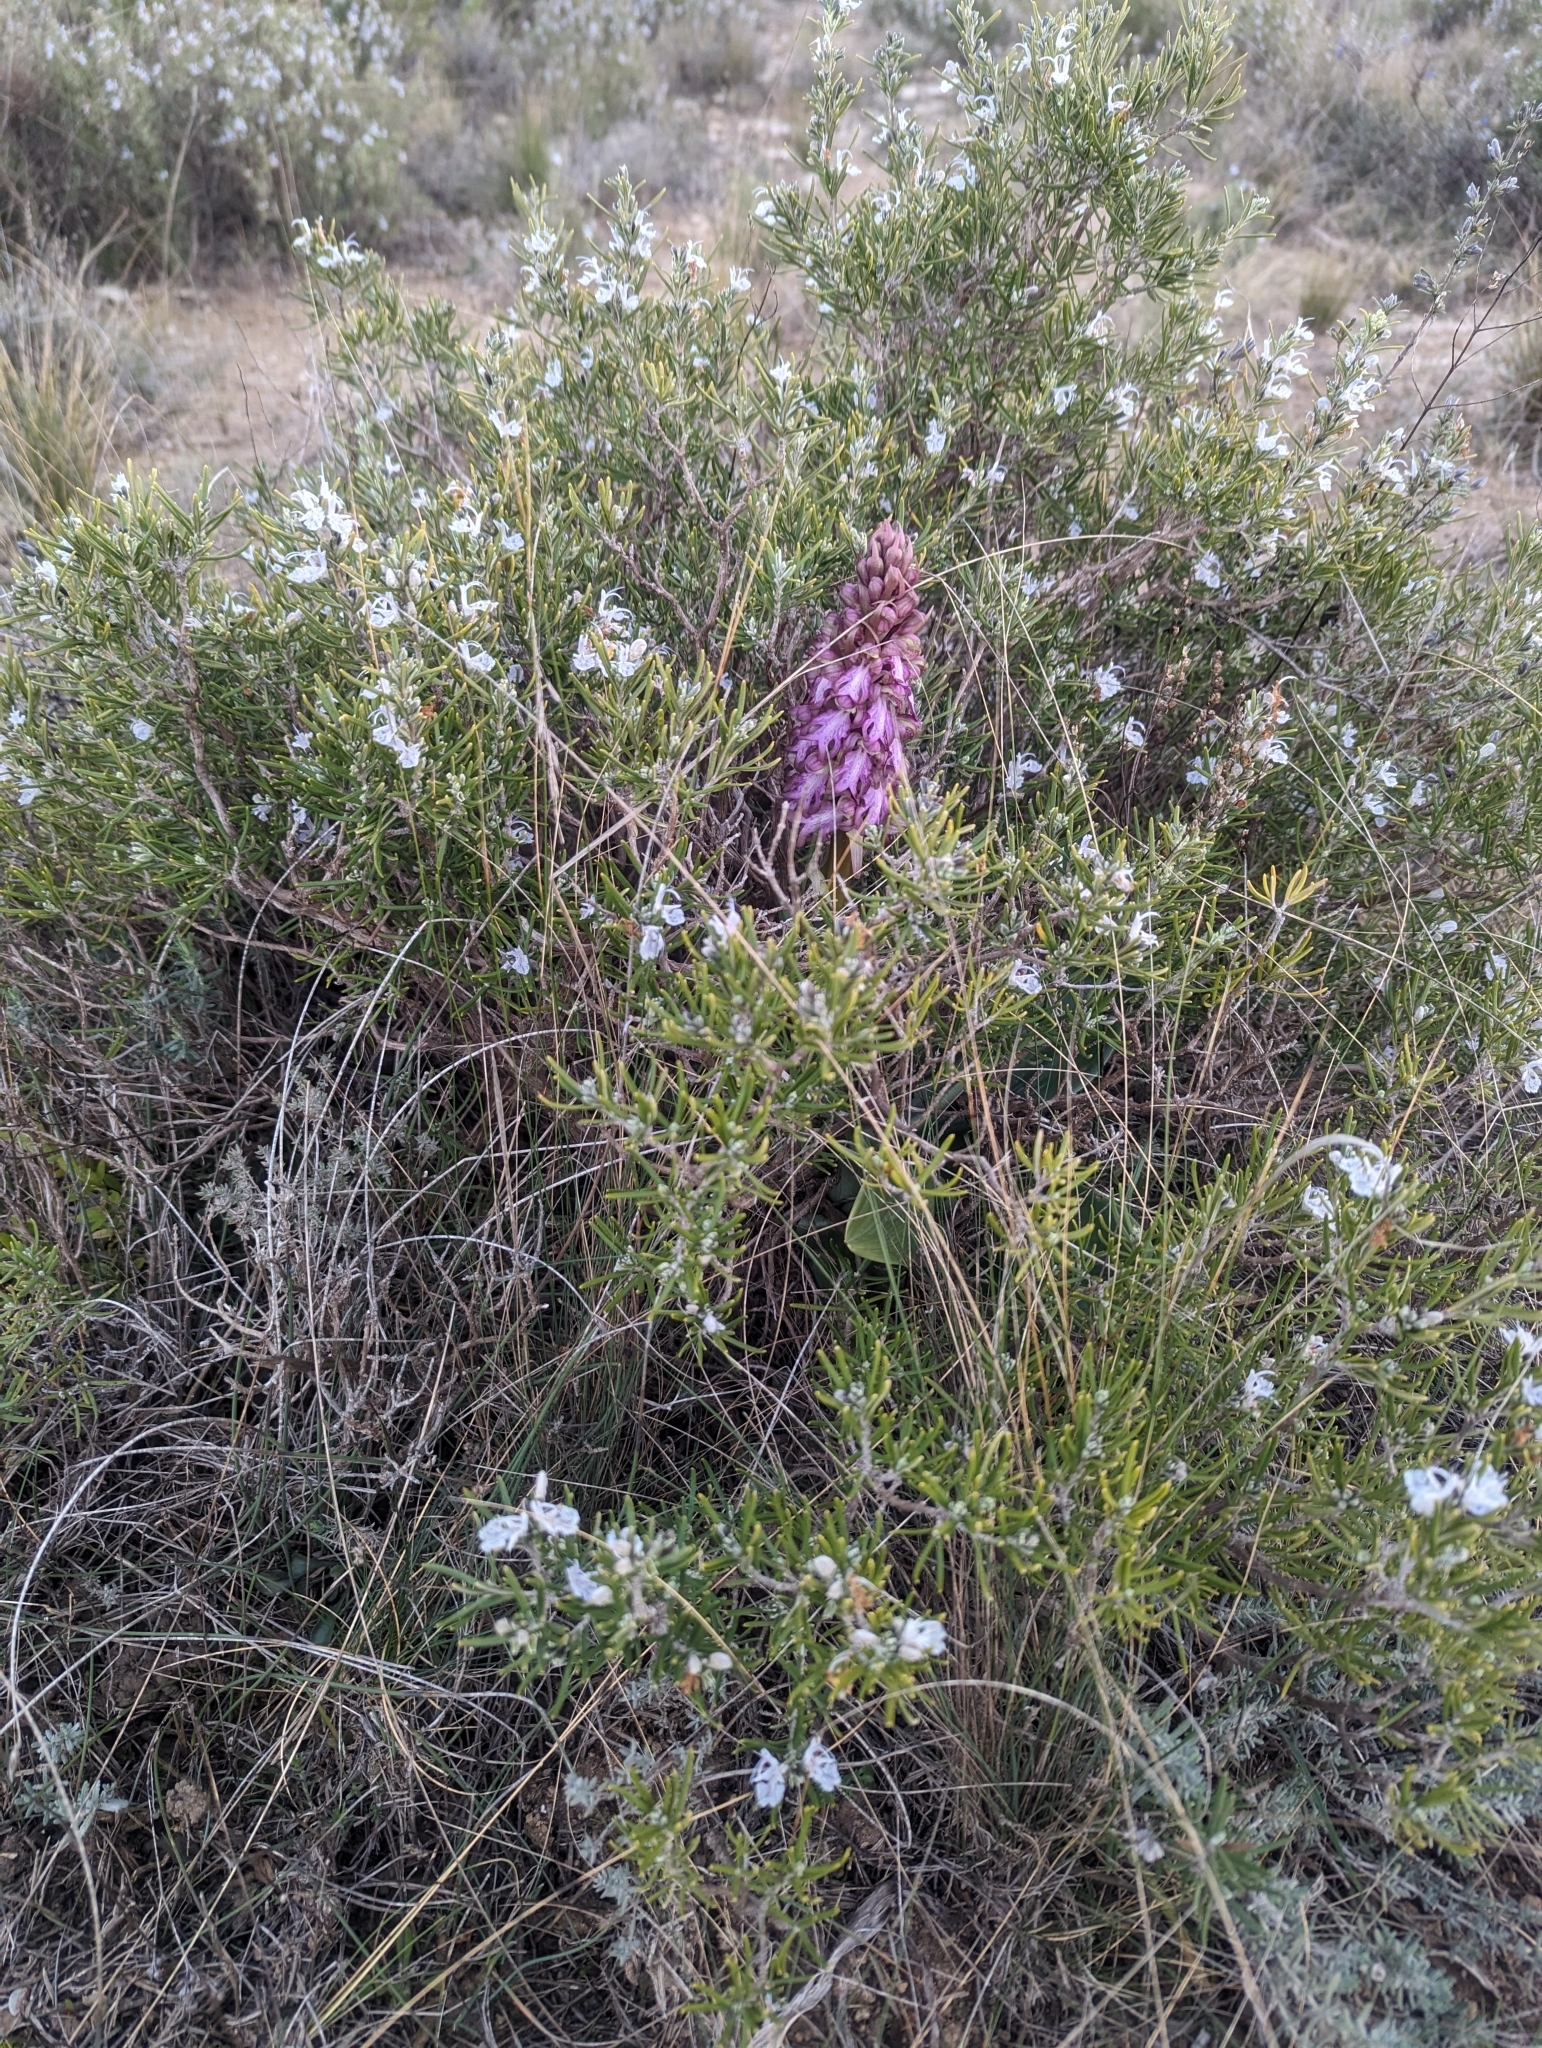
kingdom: Plantae
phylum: Tracheophyta
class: Liliopsida
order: Asparagales
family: Orchidaceae
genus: Himantoglossum
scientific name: Himantoglossum robertianum
